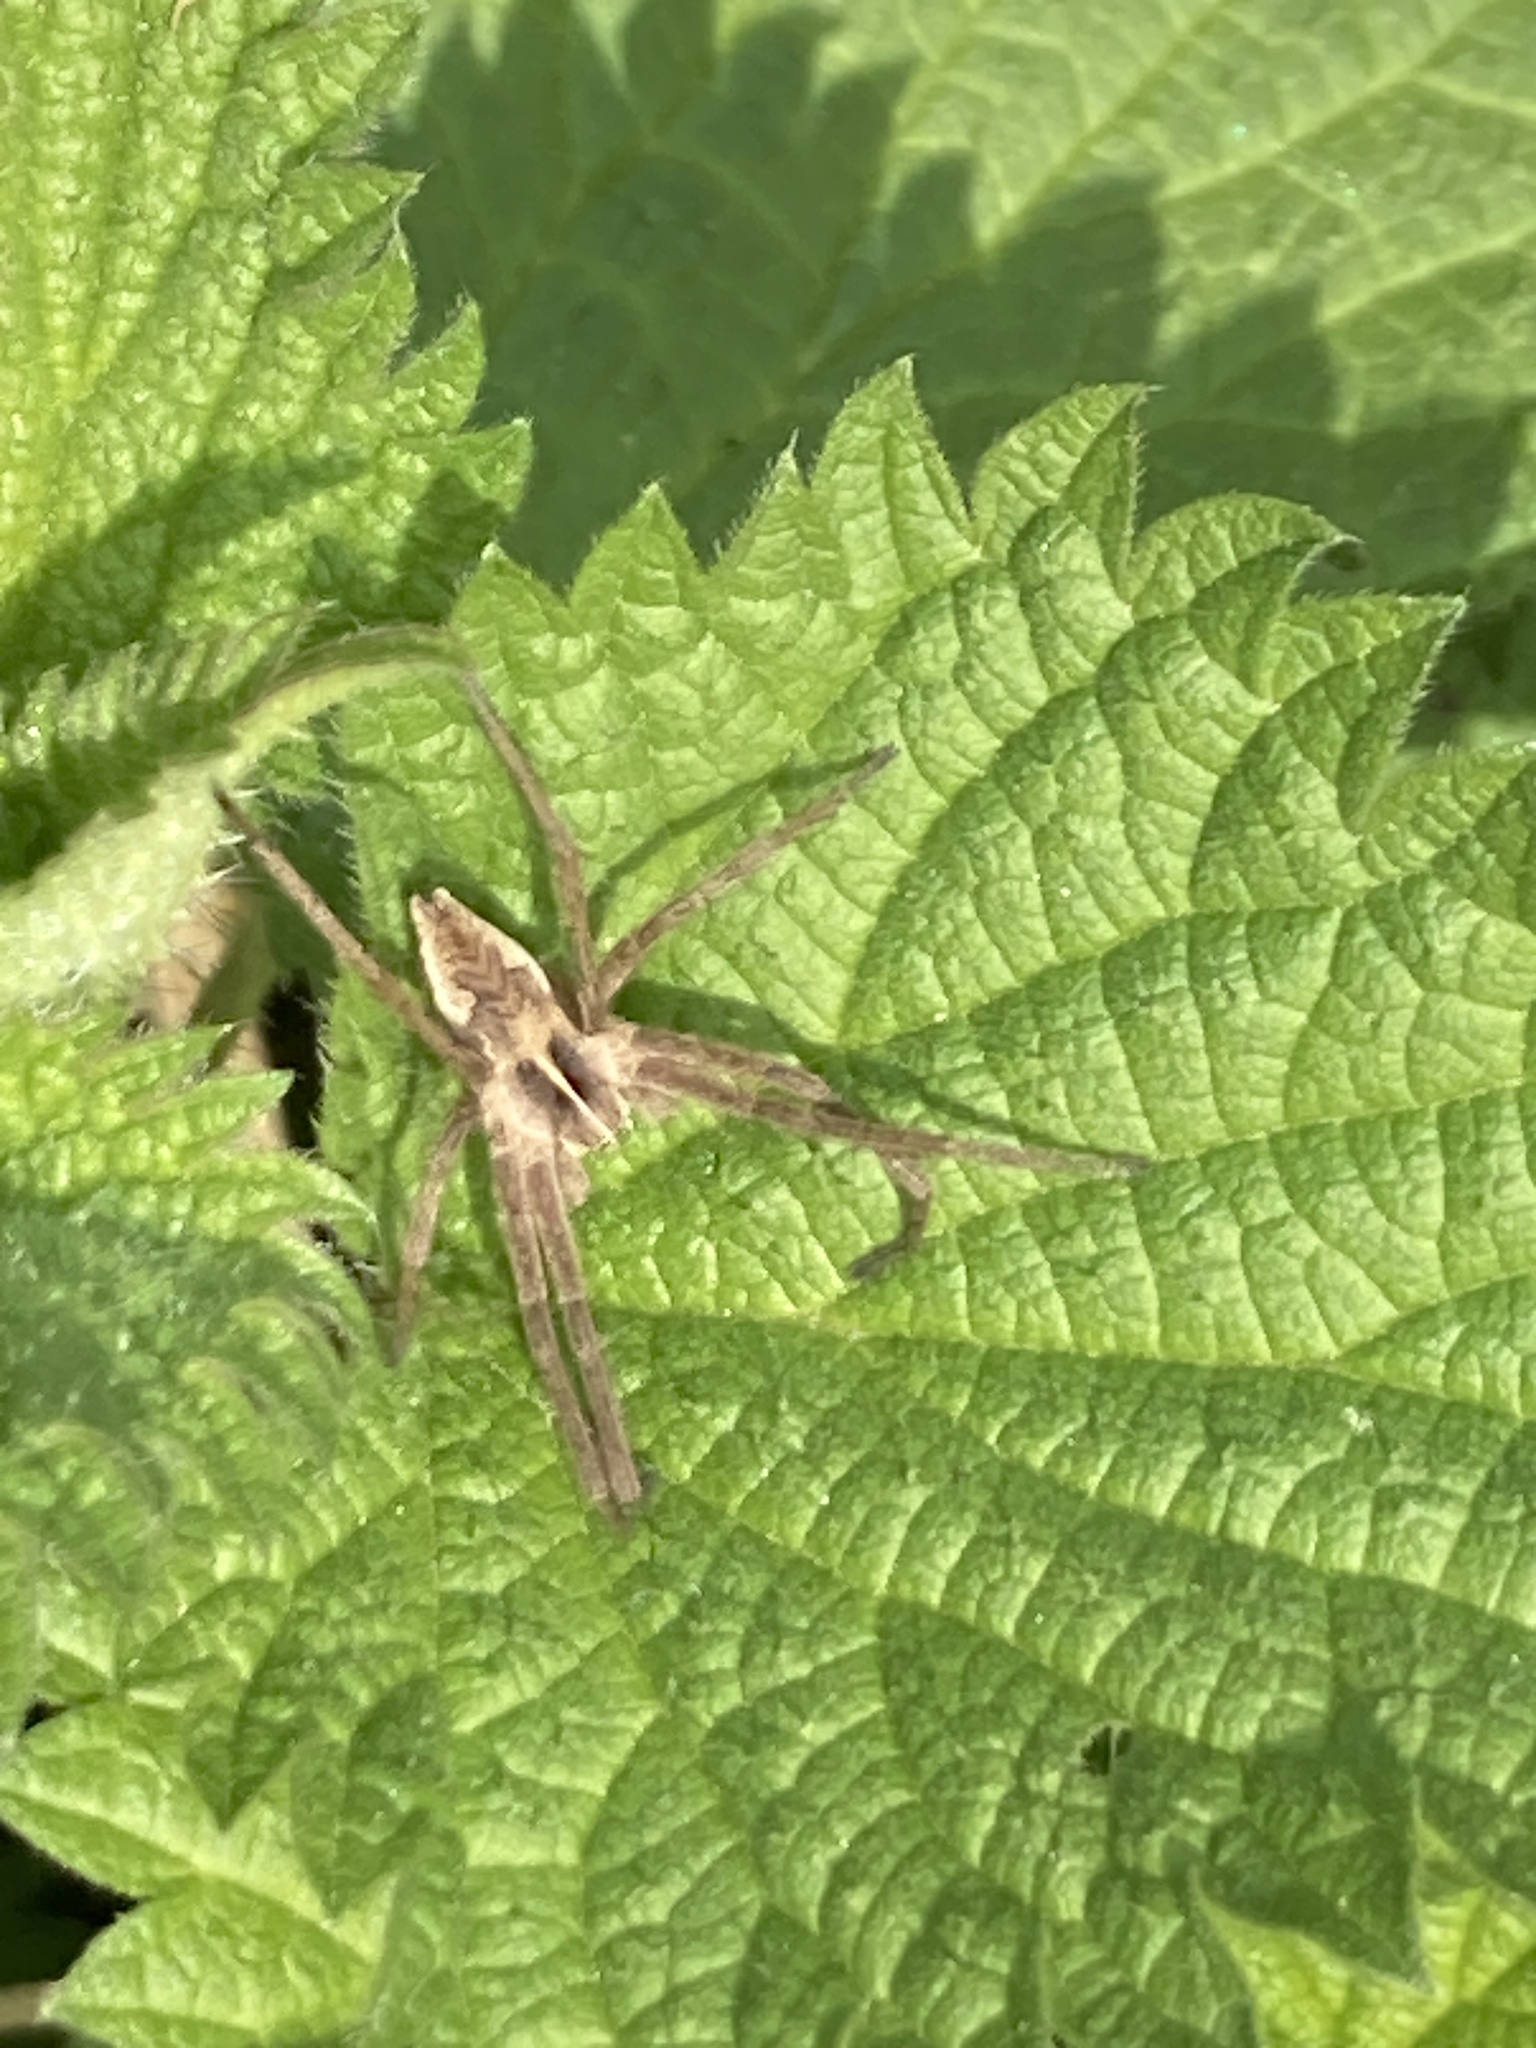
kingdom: Animalia
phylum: Arthropoda
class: Arachnida
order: Araneae
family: Pisauridae
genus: Pisaura
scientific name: Pisaura mirabilis
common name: Tent spider
